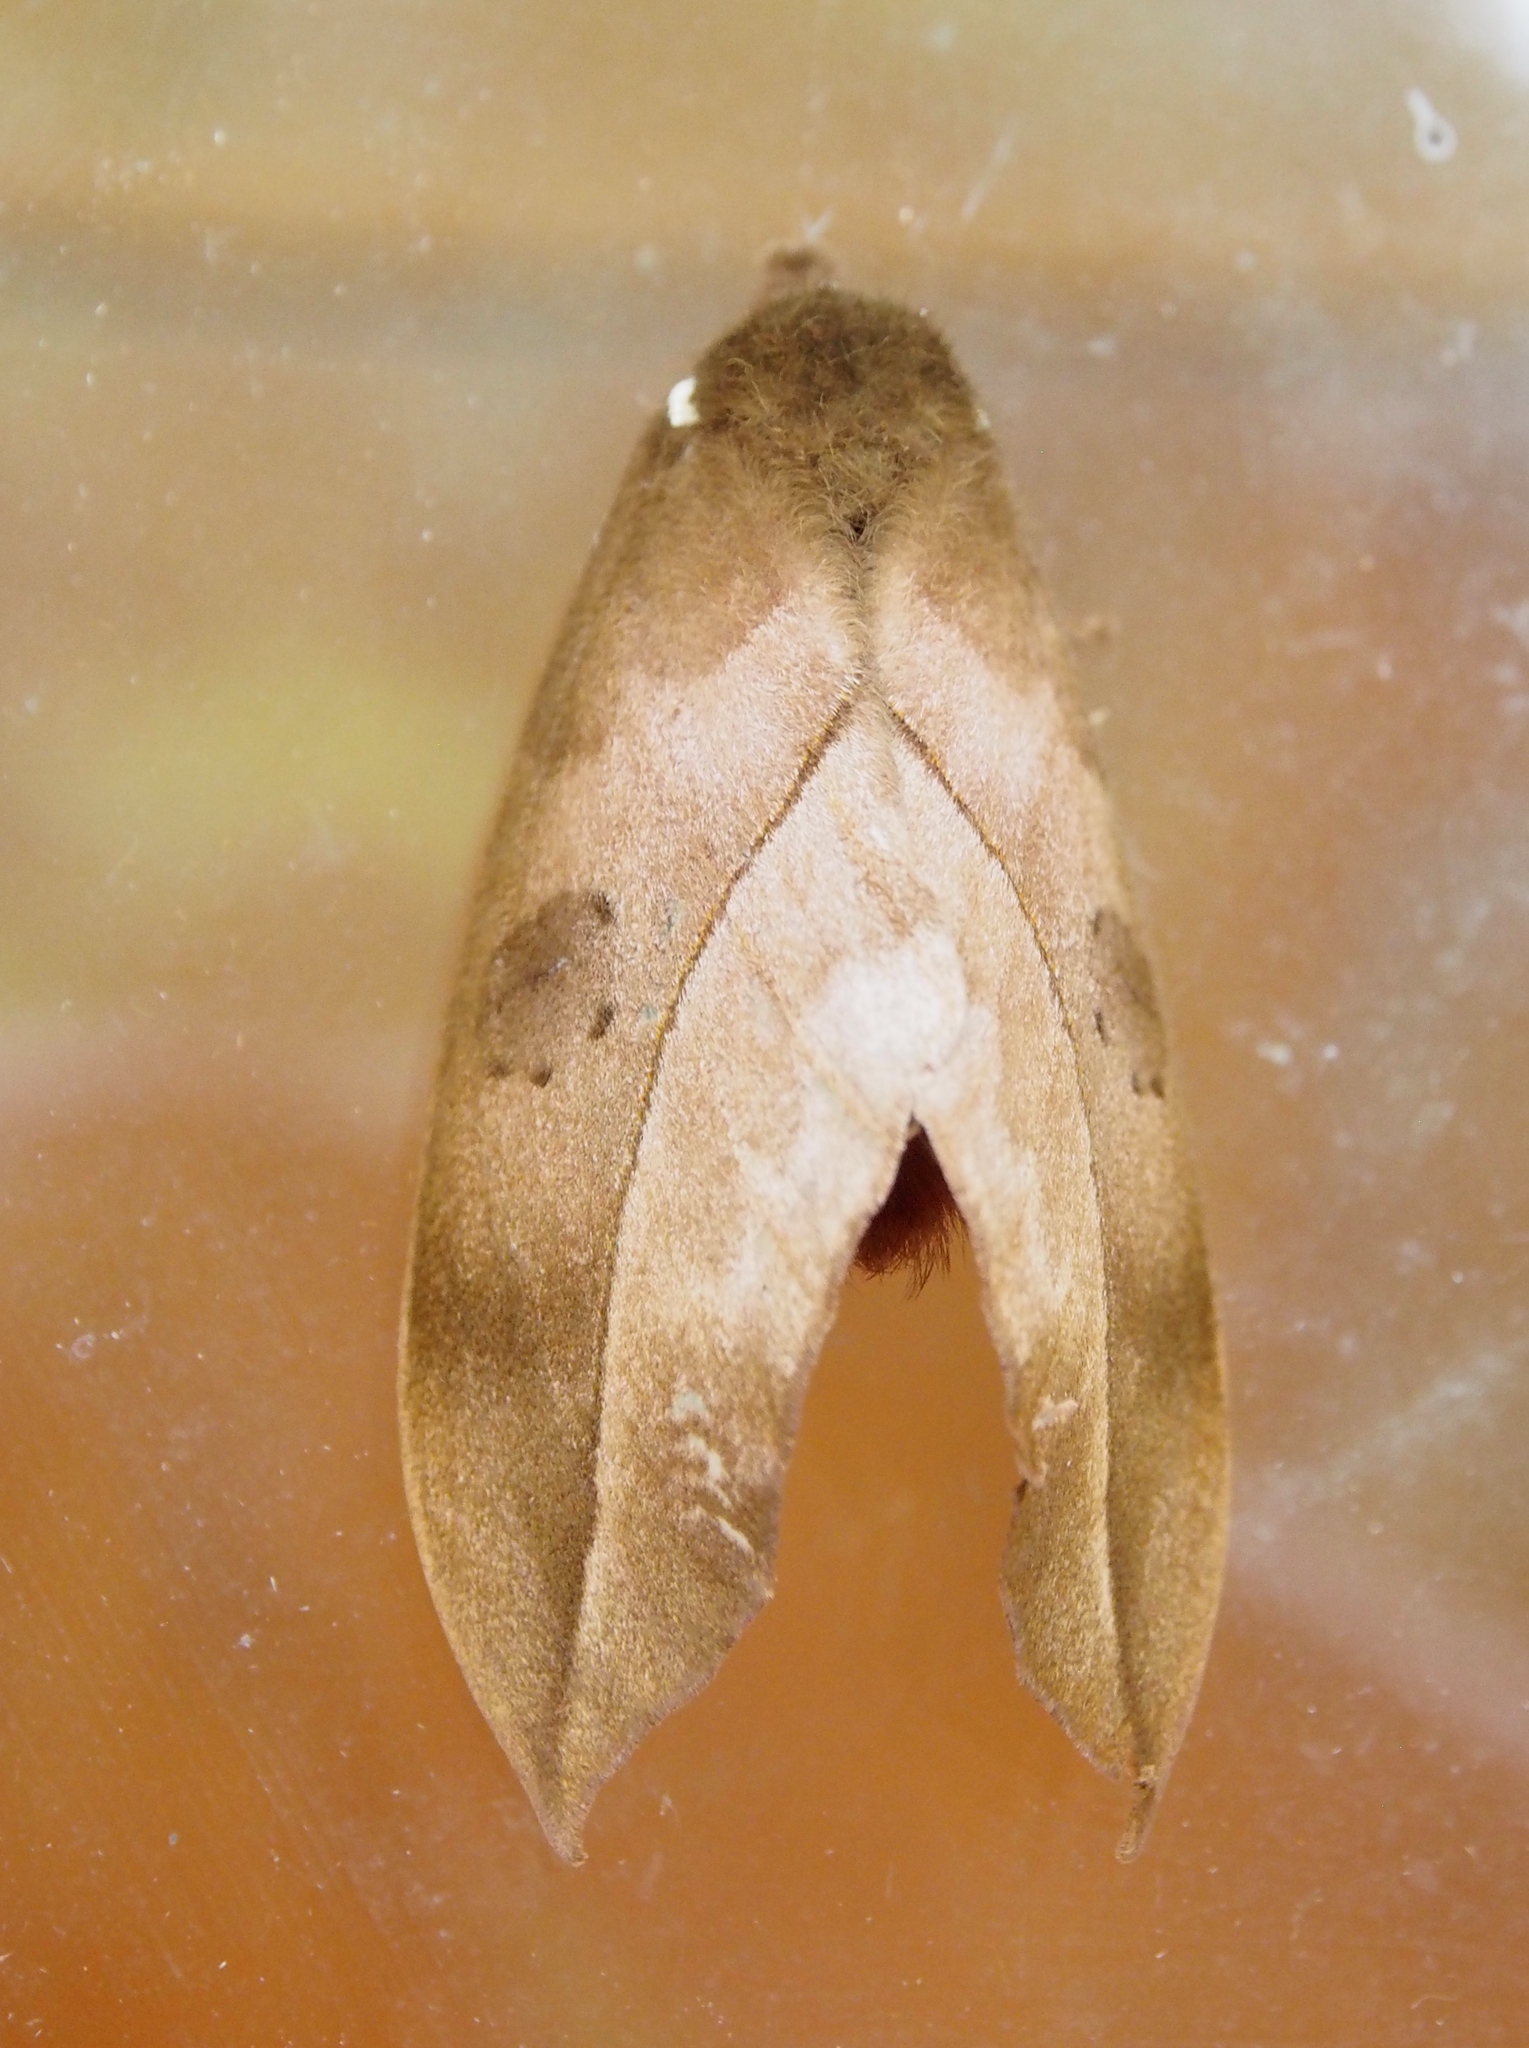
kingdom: Animalia
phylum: Arthropoda
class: Insecta
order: Lepidoptera
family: Saturniidae
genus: Automeris
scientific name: Automeris zugana
